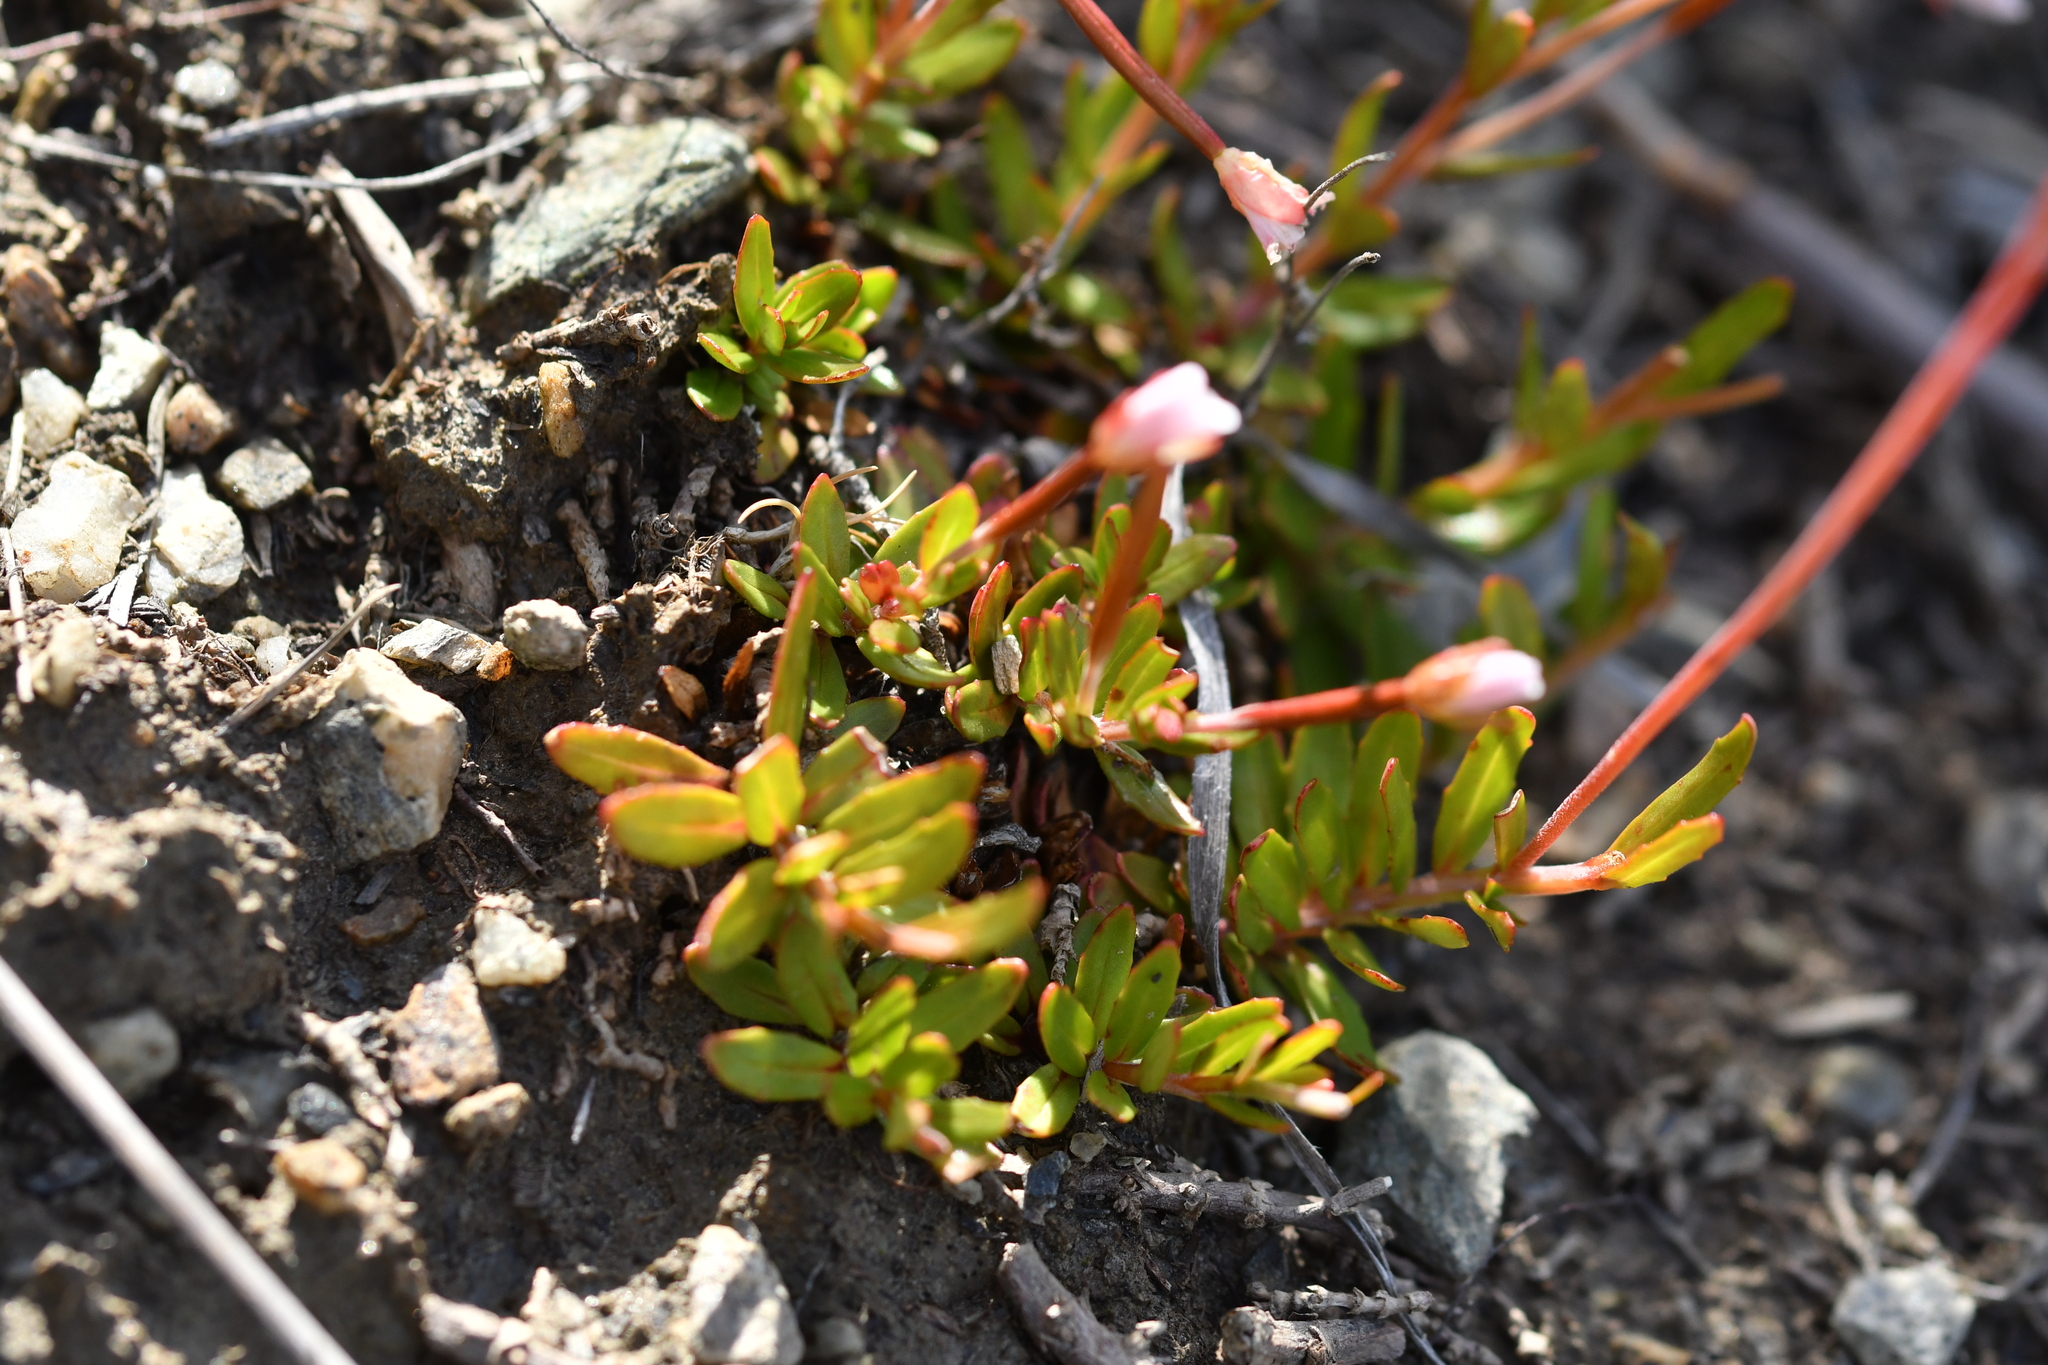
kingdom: Plantae
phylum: Tracheophyta
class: Magnoliopsida
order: Myrtales
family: Onagraceae
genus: Epilobium
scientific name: Epilobium alsinoides
